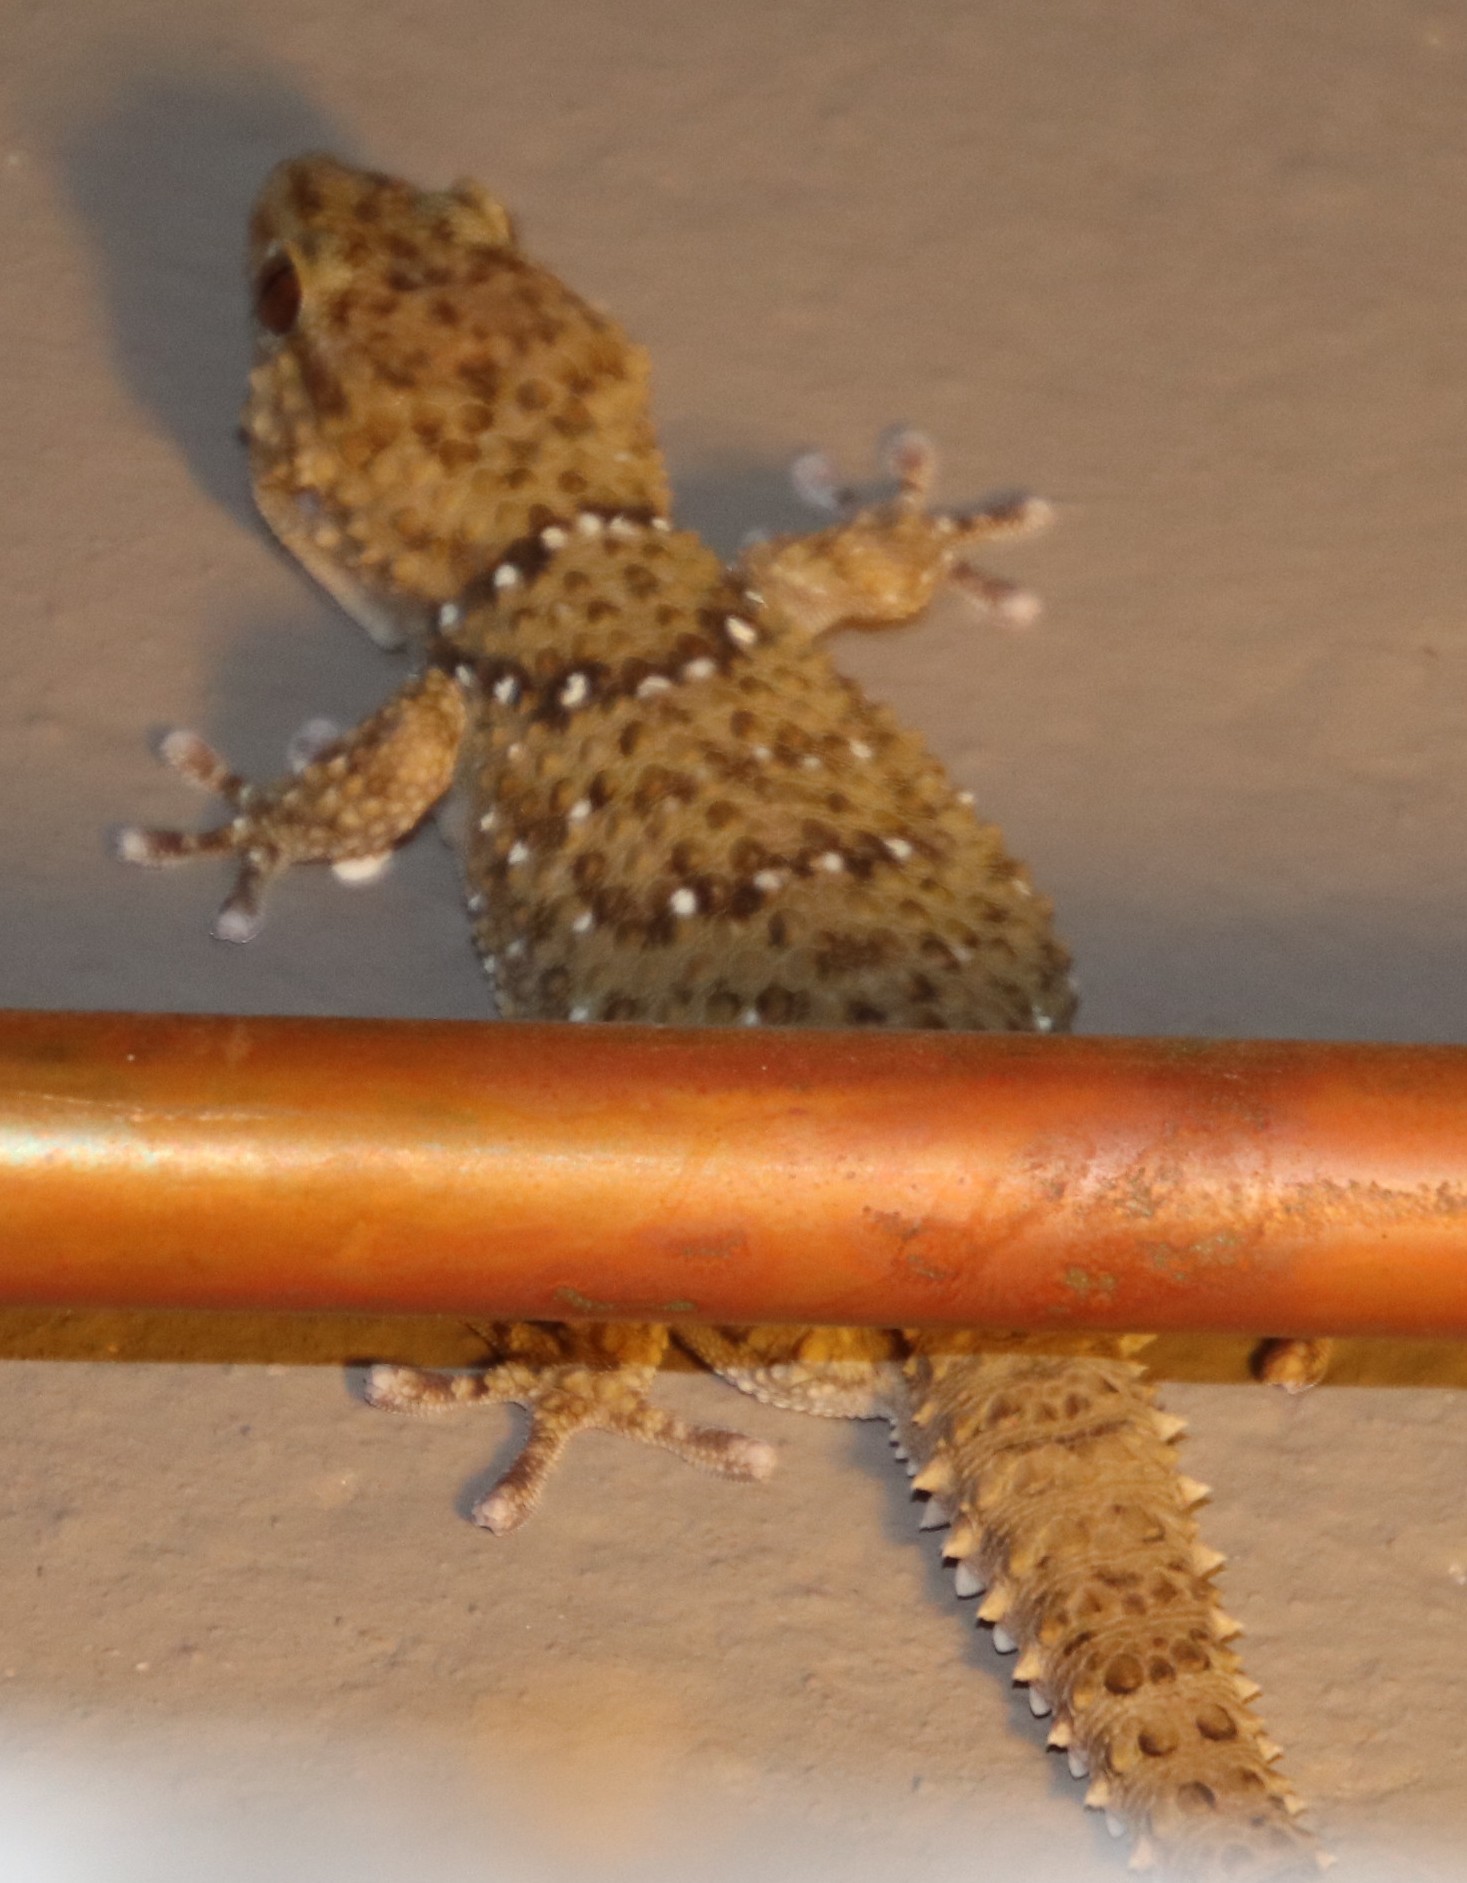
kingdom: Animalia
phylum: Chordata
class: Squamata
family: Gekkonidae
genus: Chondrodactylus
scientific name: Chondrodactylus bibronii
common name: Bibron's gecko
